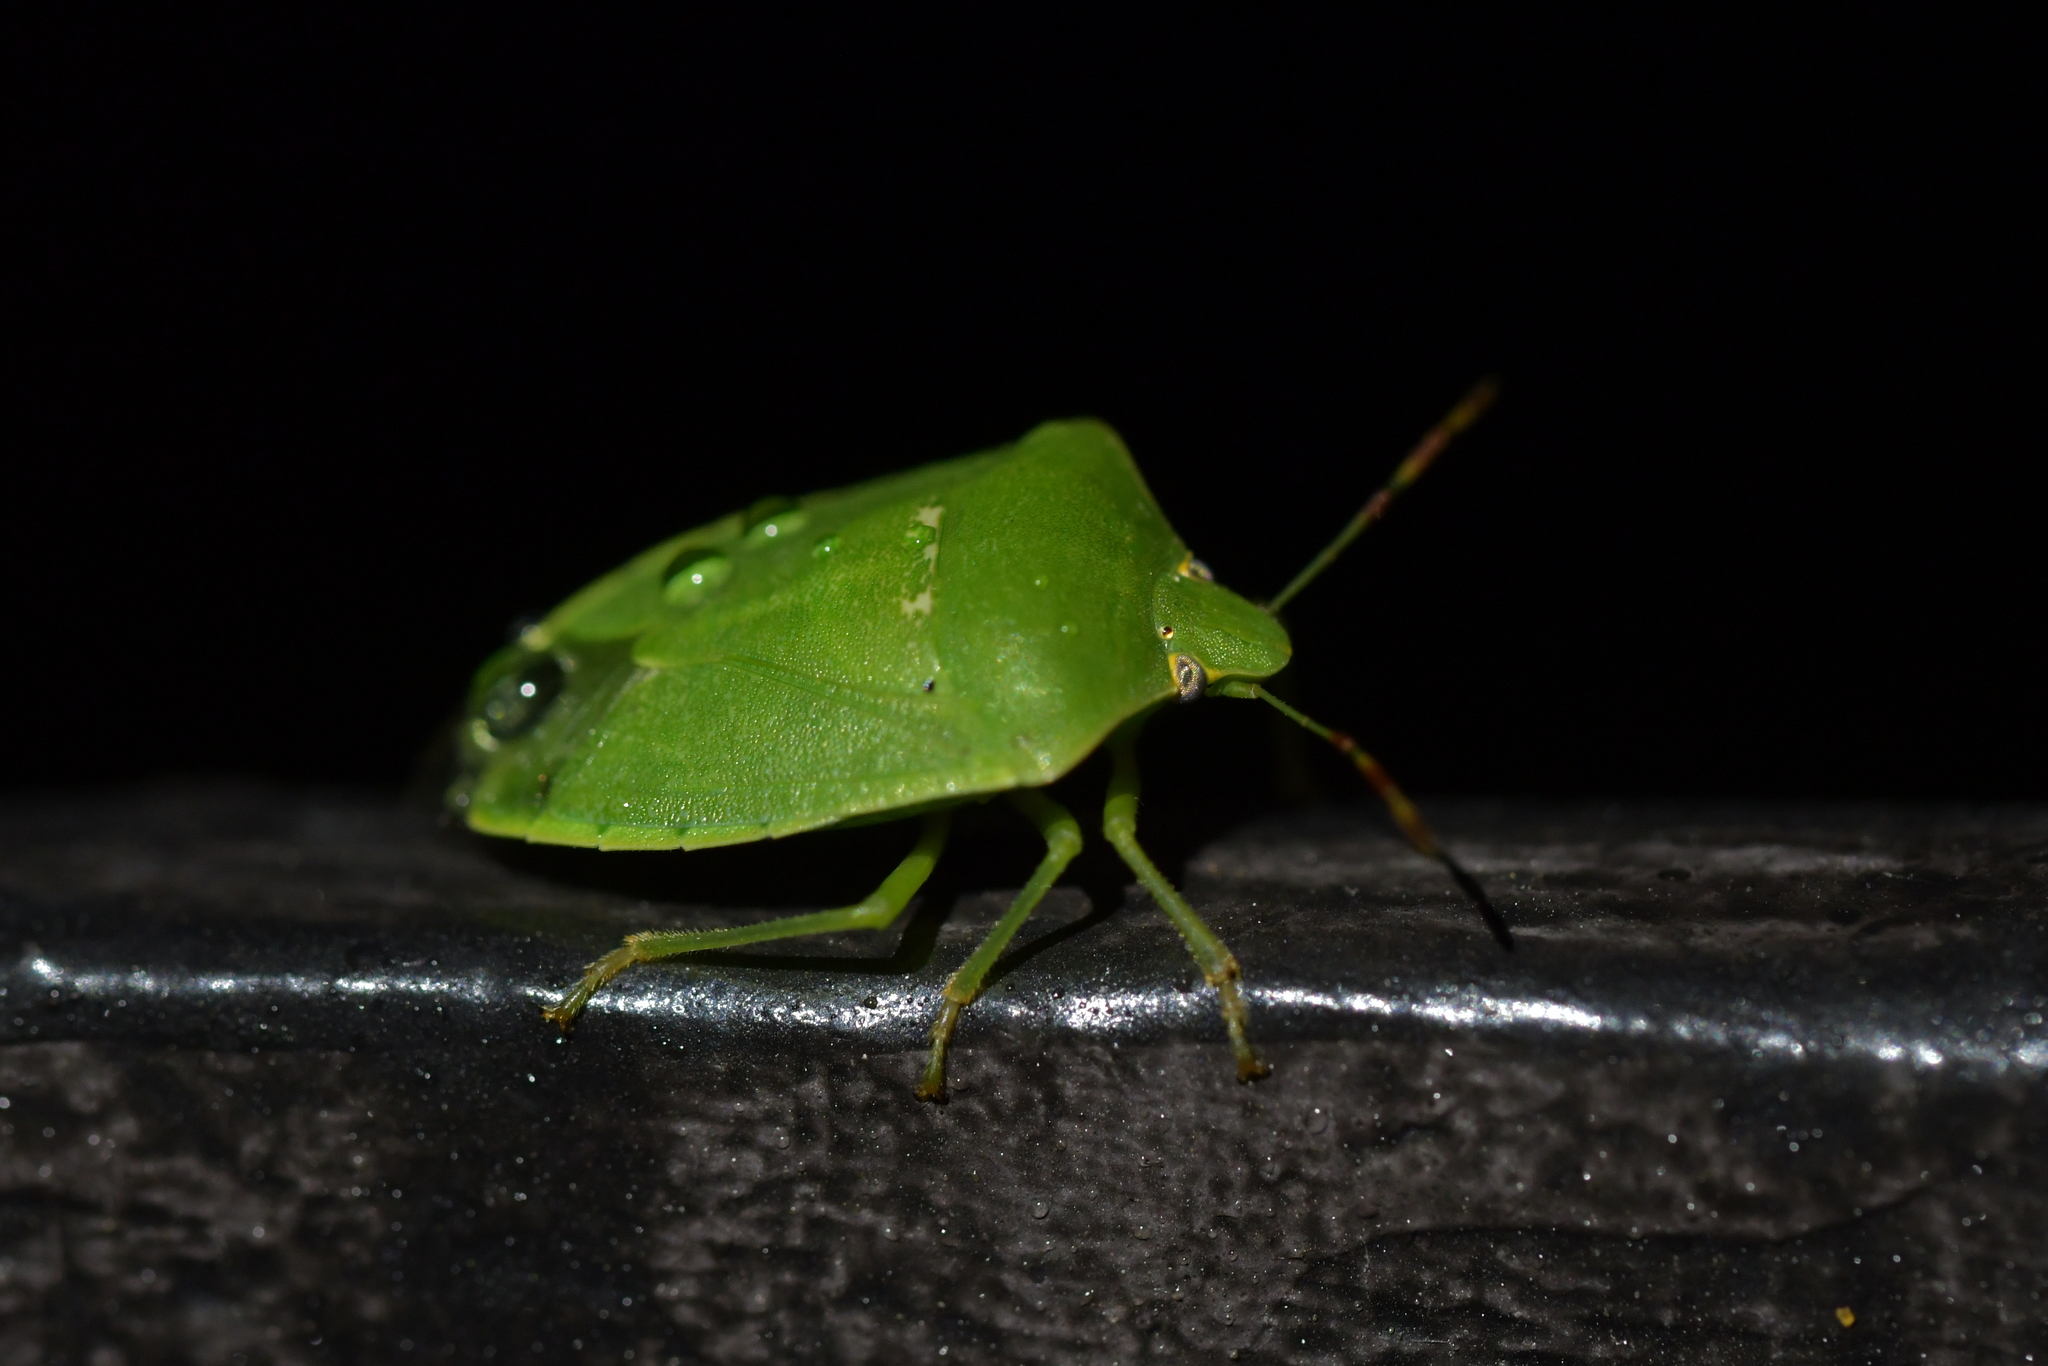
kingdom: Animalia
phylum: Arthropoda
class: Insecta
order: Hemiptera
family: Pentatomidae
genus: Nezara
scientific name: Nezara viridula
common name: Southern green stink bug
